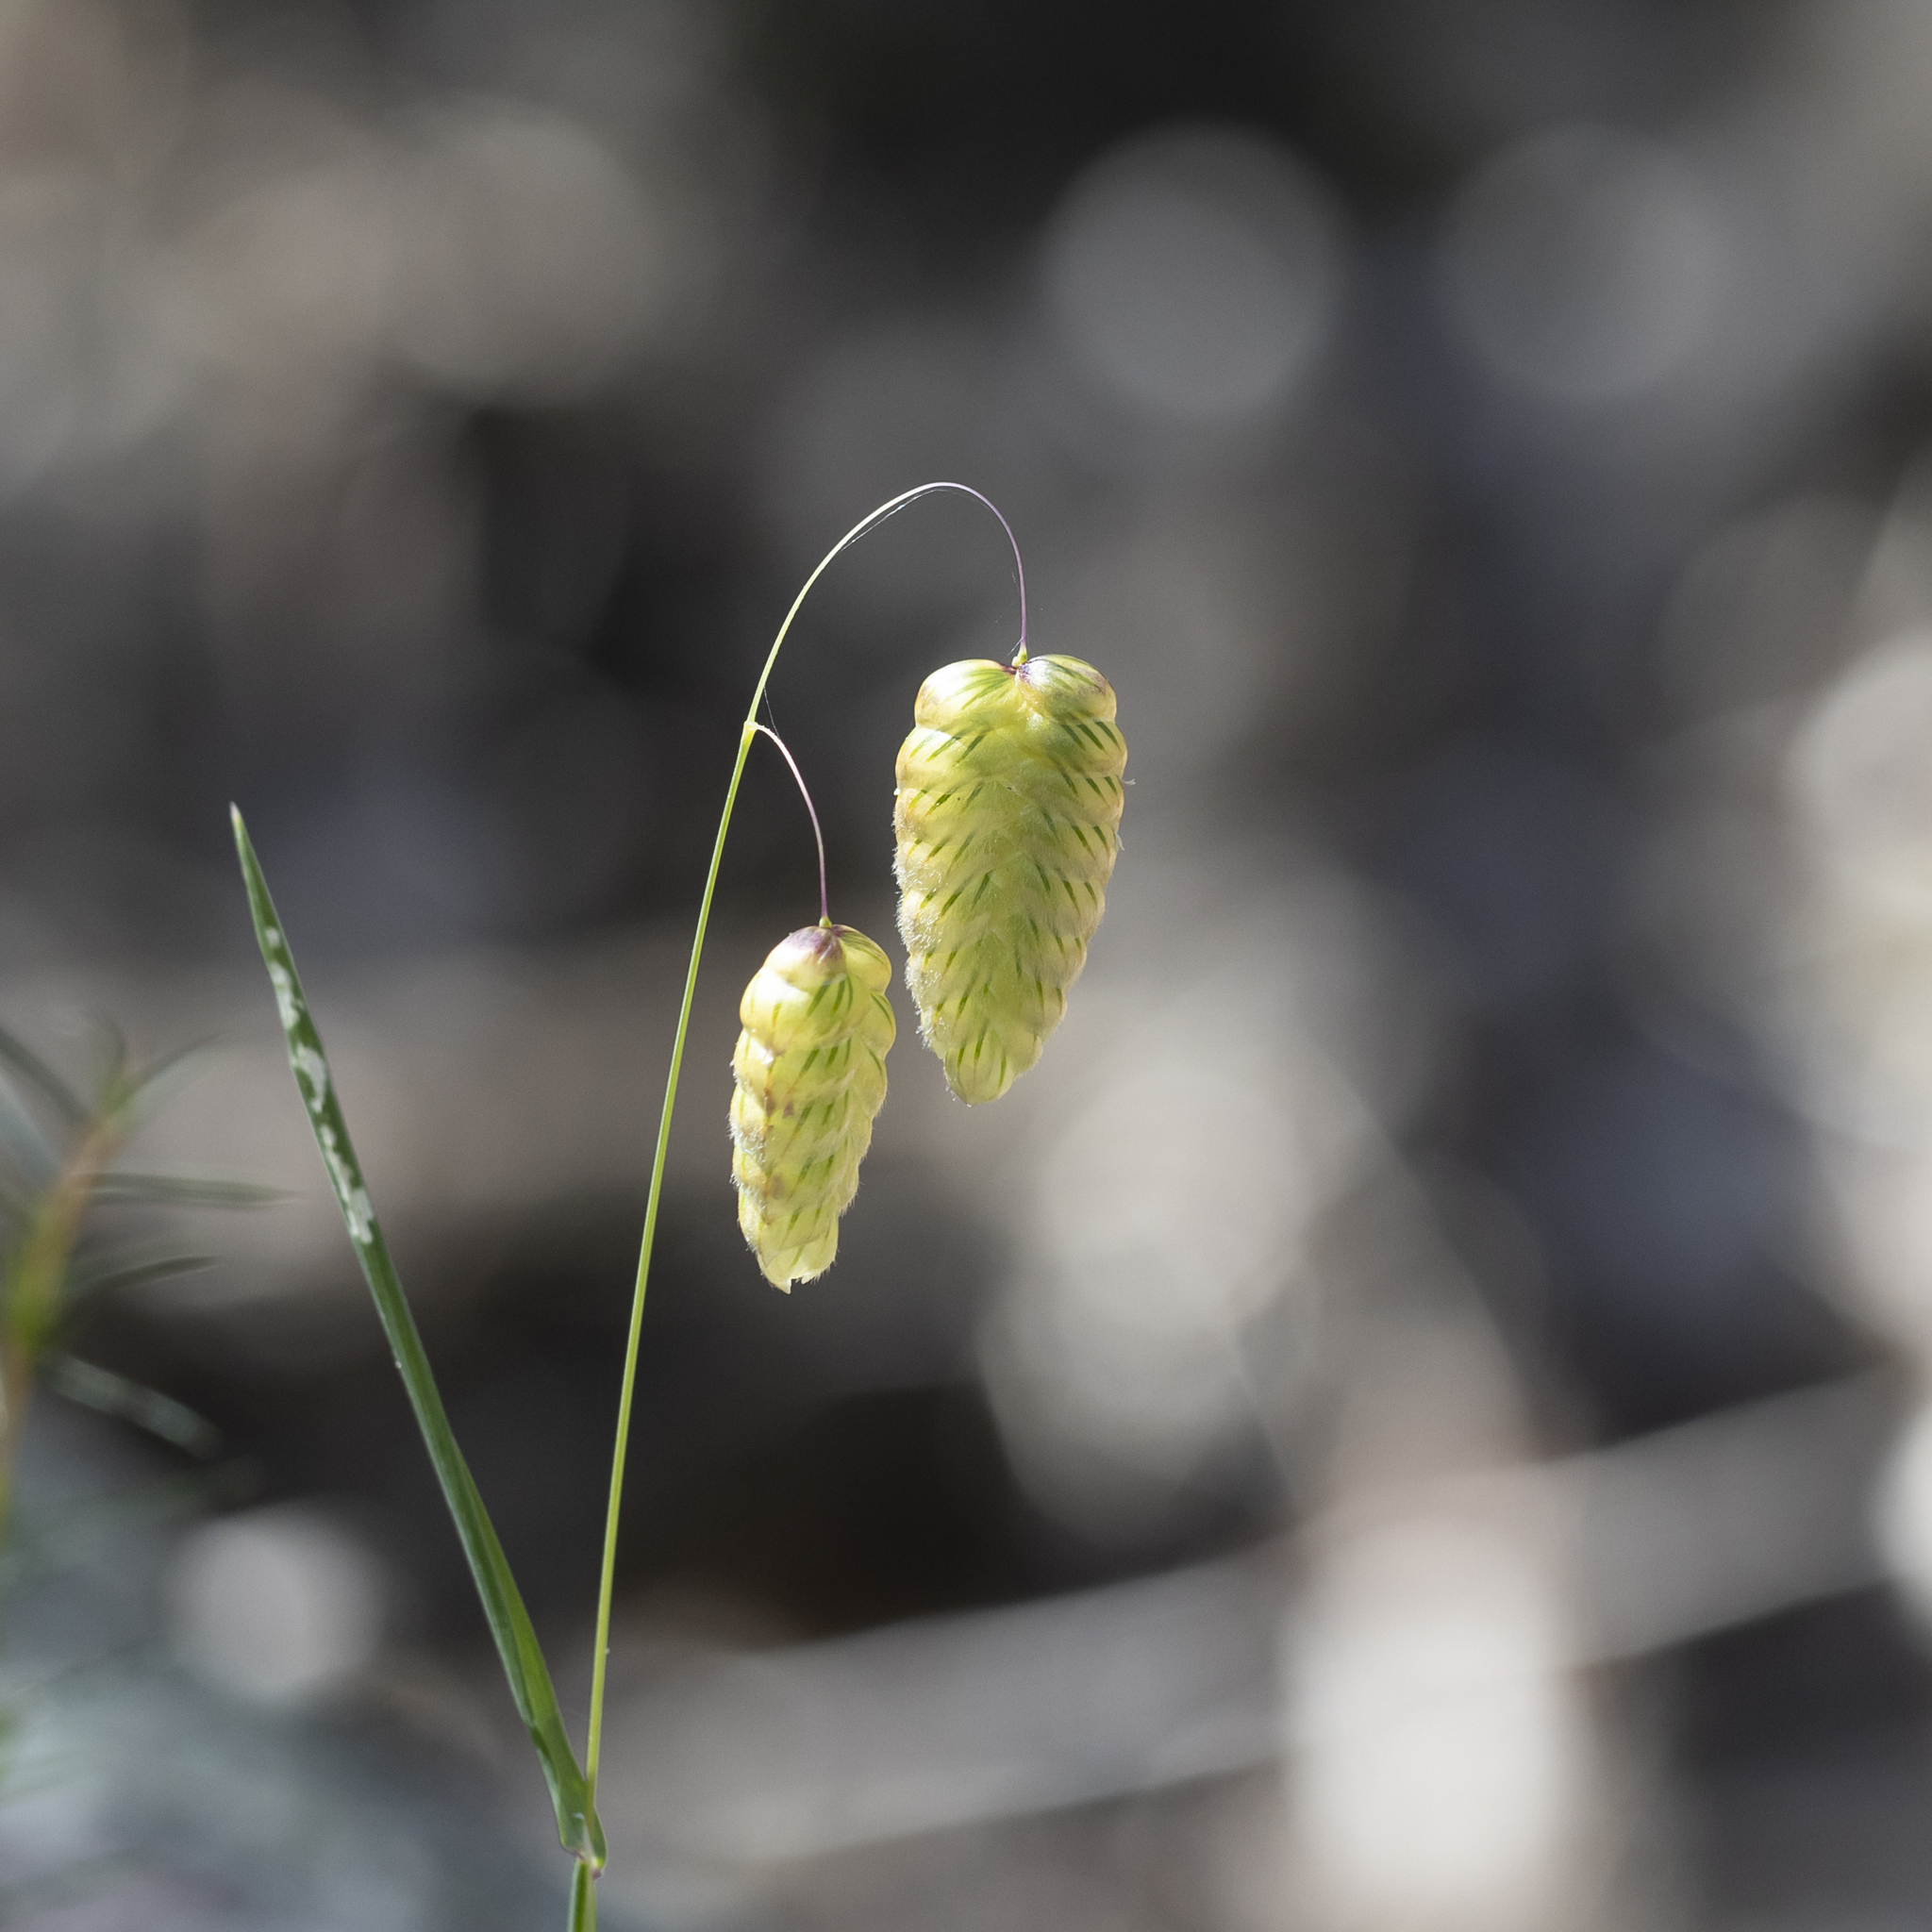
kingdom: Plantae
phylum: Tracheophyta
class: Liliopsida
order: Poales
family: Poaceae
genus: Briza
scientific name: Briza maxima
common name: Big quakinggrass
